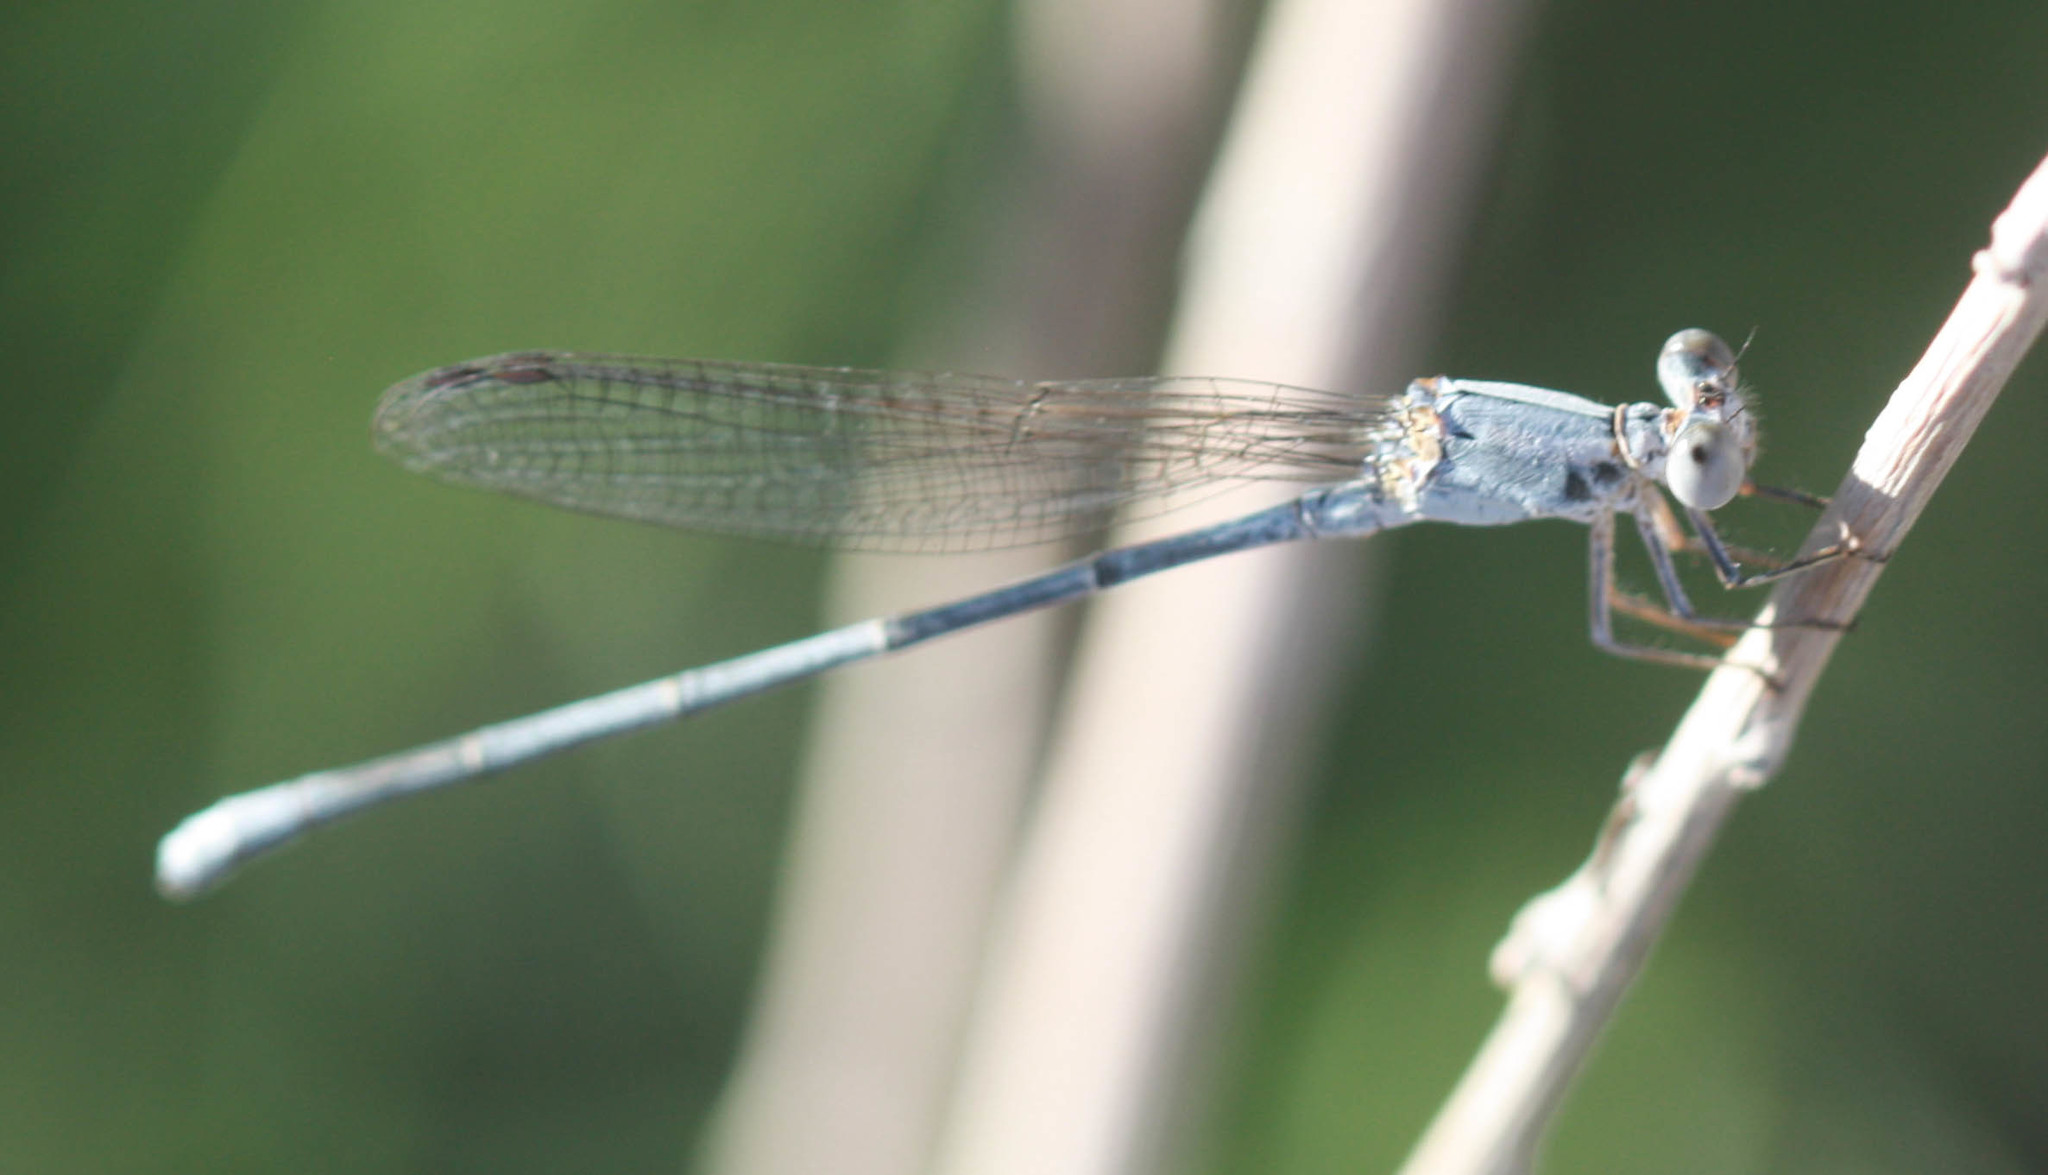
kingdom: Animalia
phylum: Arthropoda
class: Insecta
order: Odonata
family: Coenagrionidae
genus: Argia
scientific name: Argia moesta
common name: Powdered dancer
